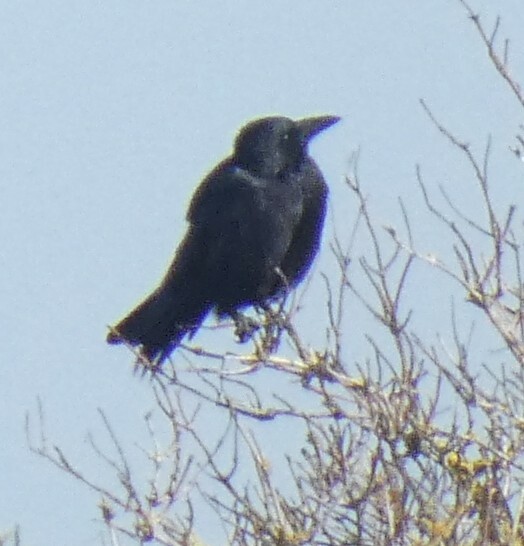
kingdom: Animalia
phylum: Chordata
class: Aves
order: Passeriformes
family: Corvidae
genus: Corvus
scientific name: Corvus corone
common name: Carrion crow
